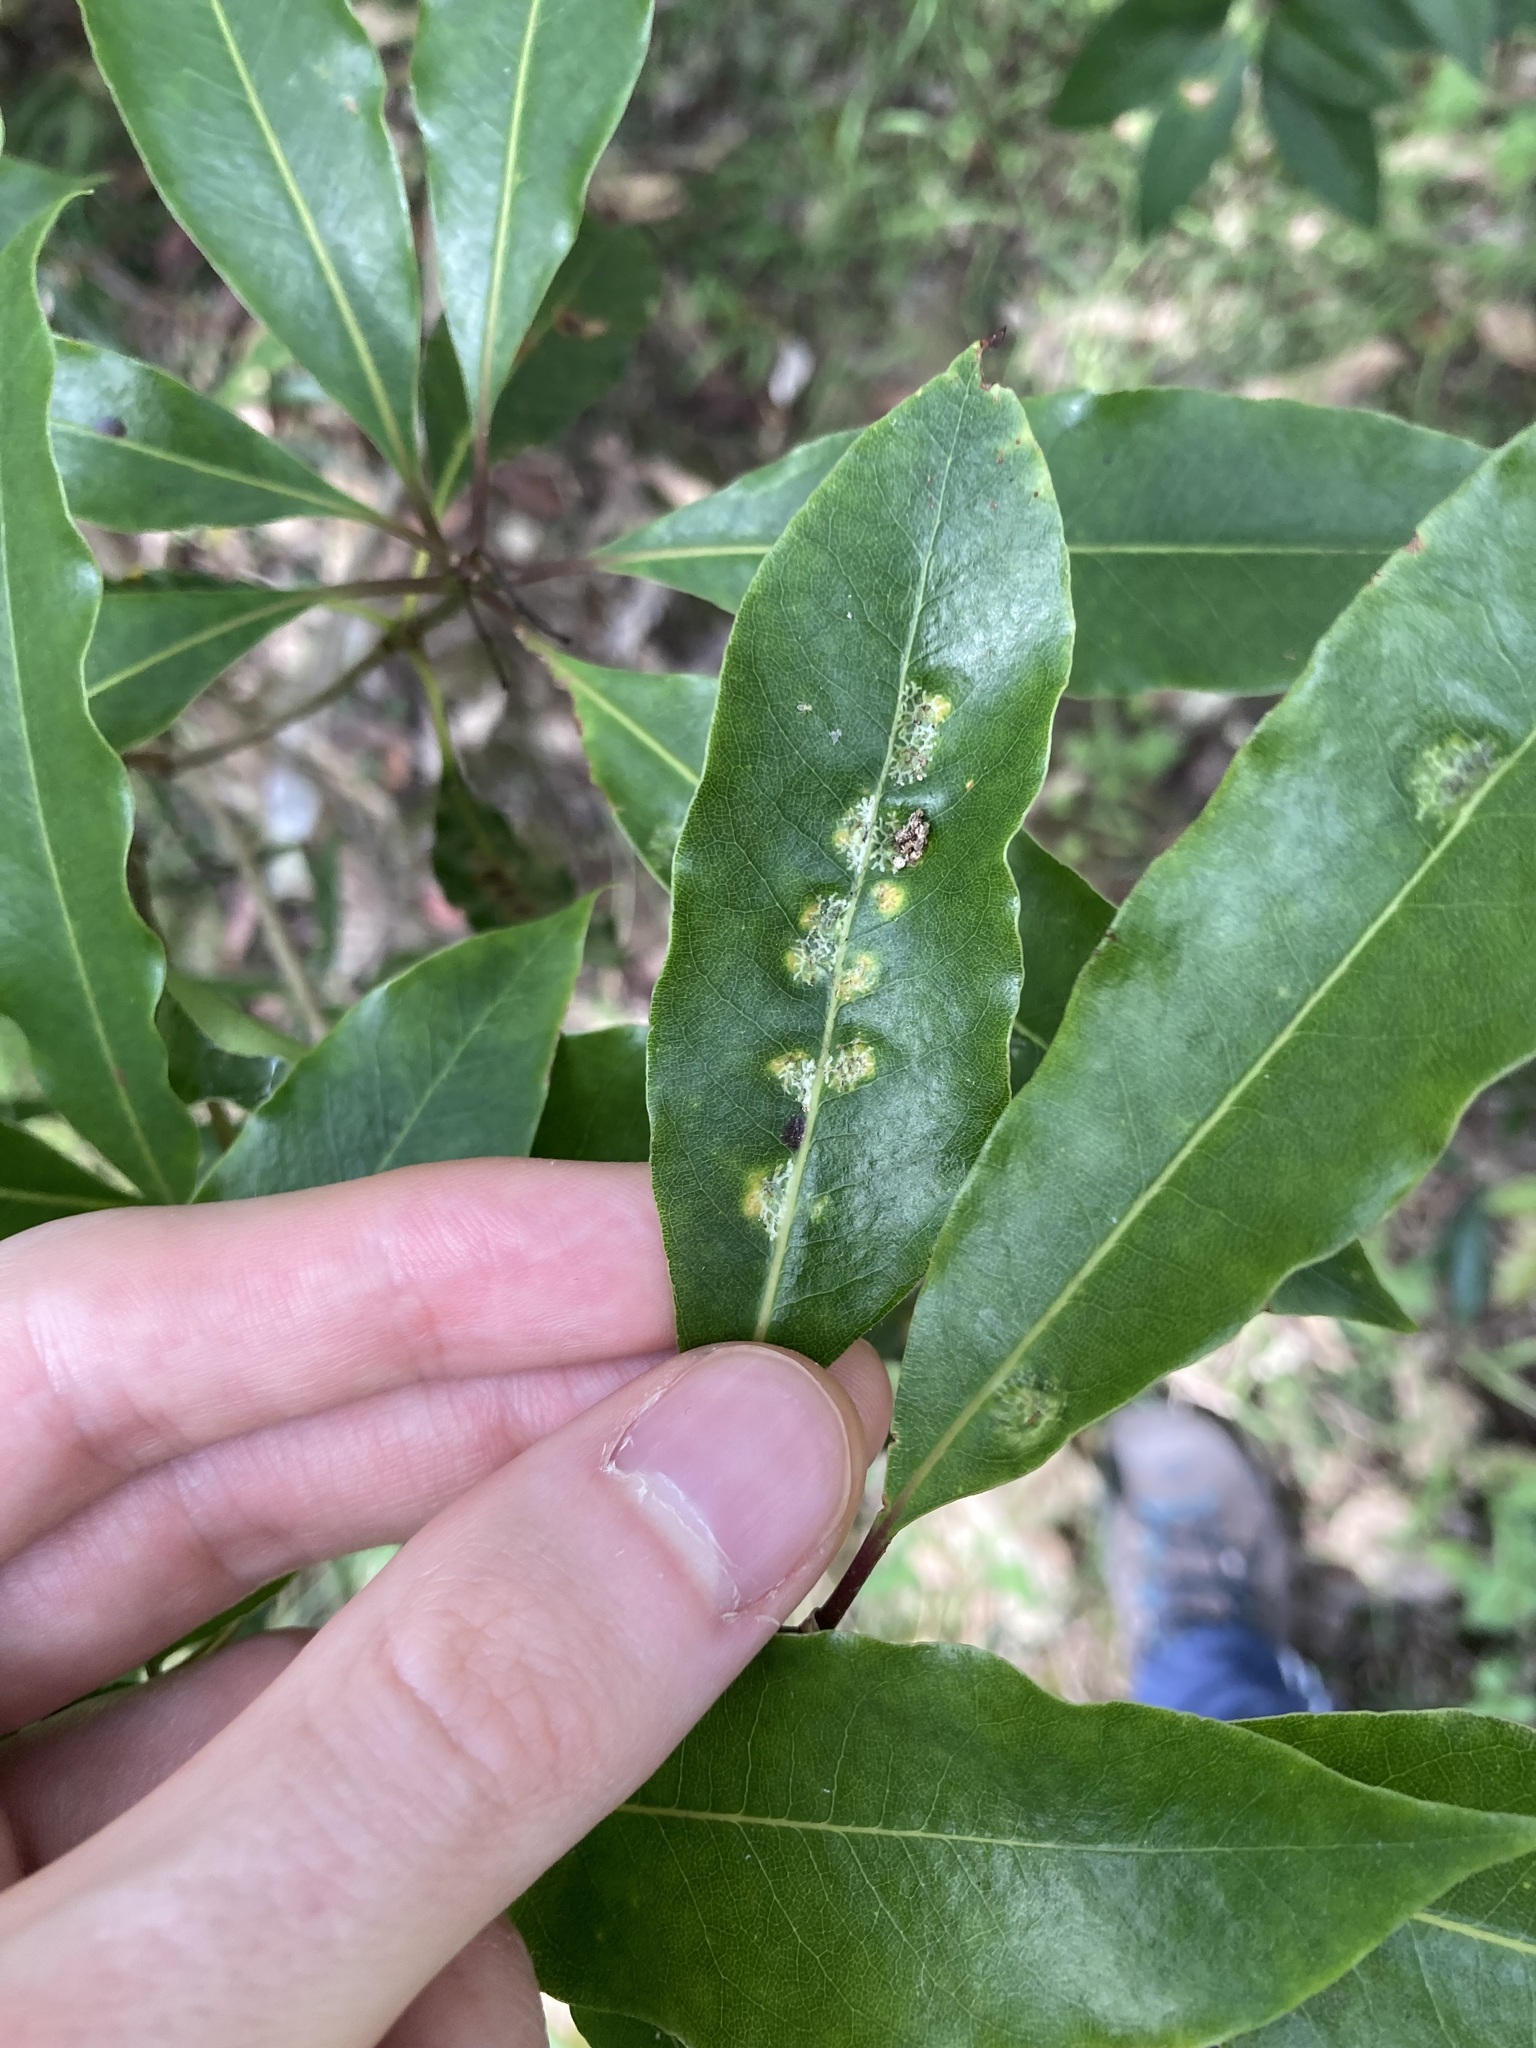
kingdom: Animalia
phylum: Arthropoda
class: Insecta
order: Diptera
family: Agromyzidae
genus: Phytoliriomyza
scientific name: Phytoliriomyza pittosporophylli
